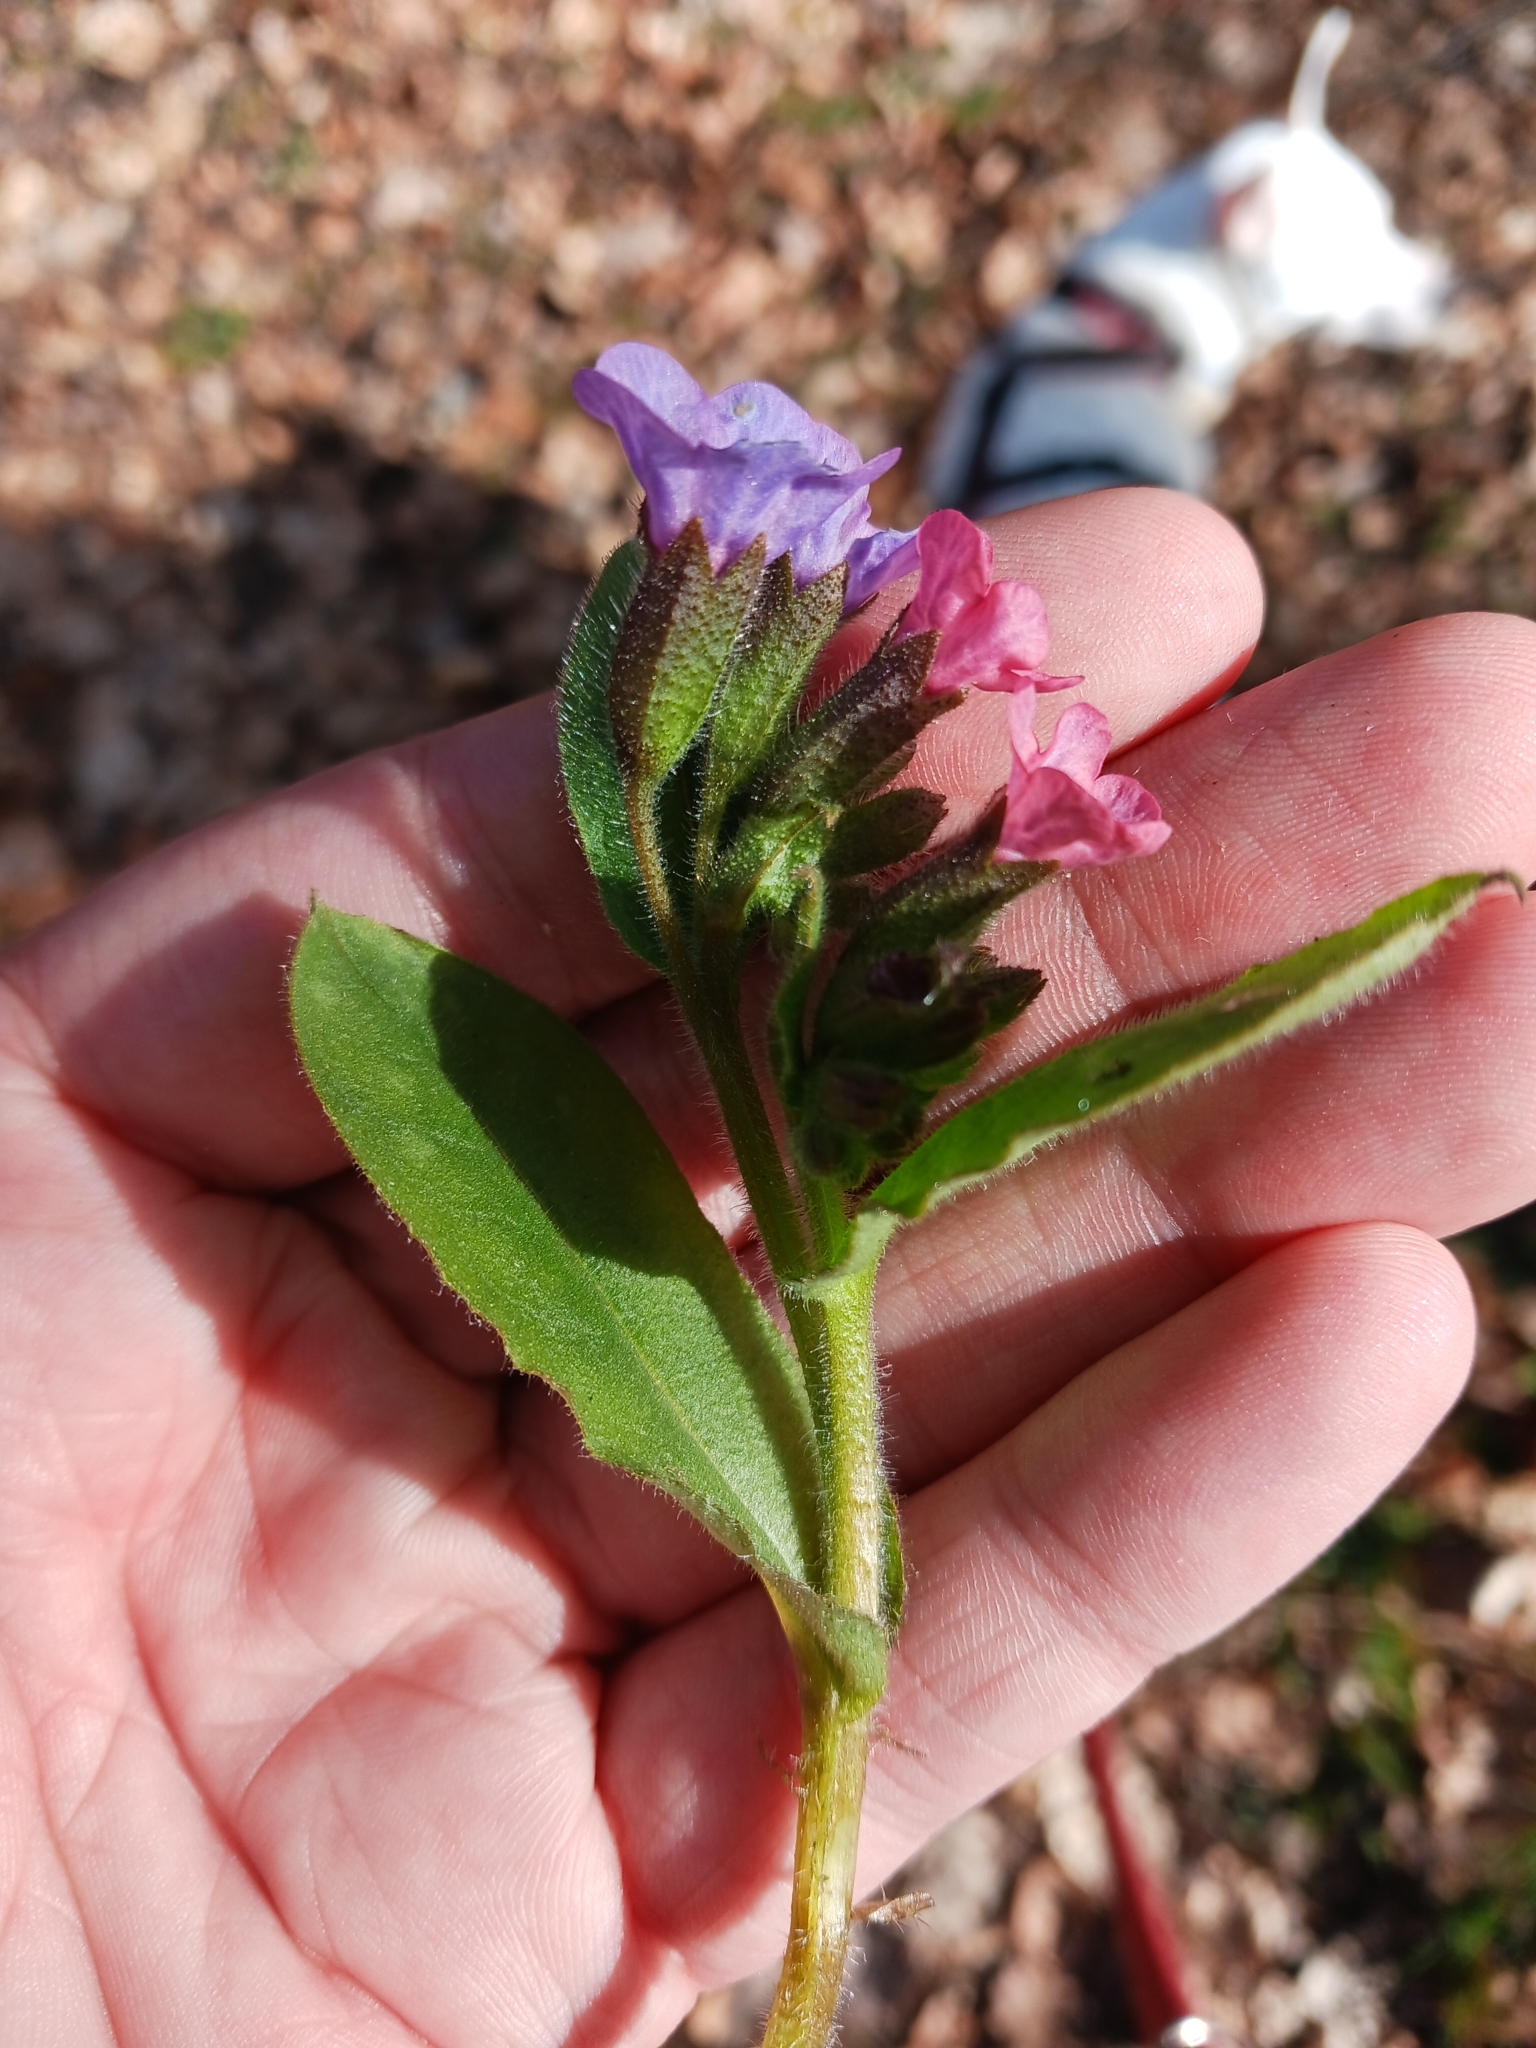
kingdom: Plantae
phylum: Tracheophyta
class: Magnoliopsida
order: Boraginales
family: Boraginaceae
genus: Pulmonaria
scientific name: Pulmonaria obscura
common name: Suffolk lungwort
